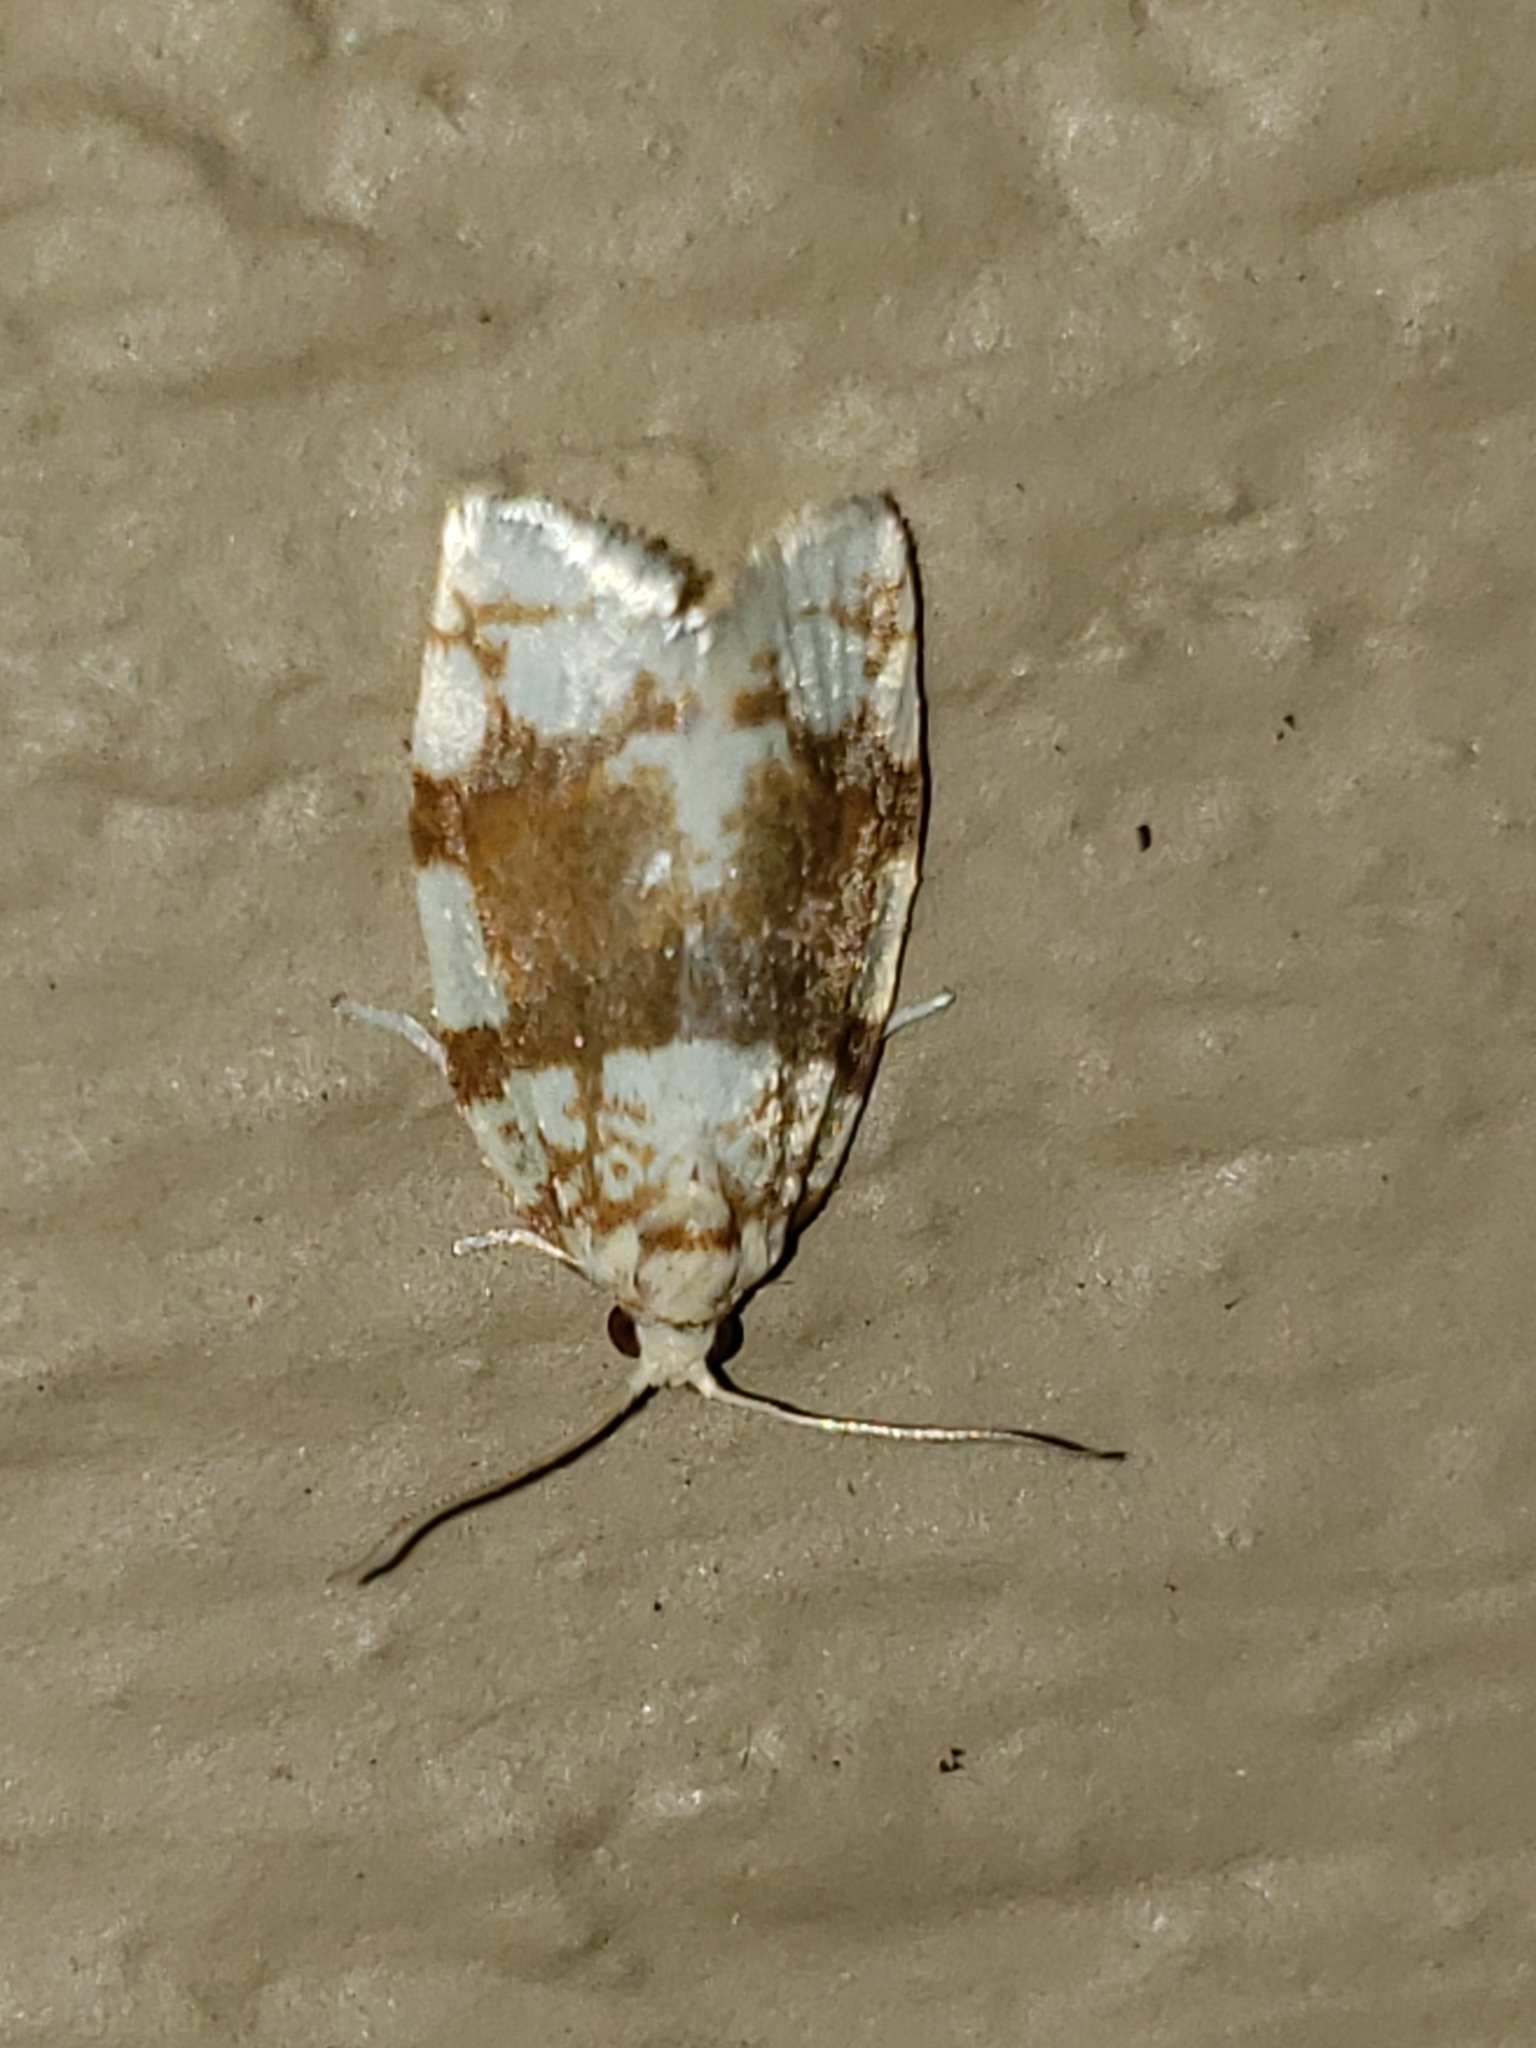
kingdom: Animalia
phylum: Arthropoda
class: Insecta
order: Lepidoptera
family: Tortricidae
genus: Argyrotaenia
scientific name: Argyrotaenia alisellana
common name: White-spotted leafroller moth
